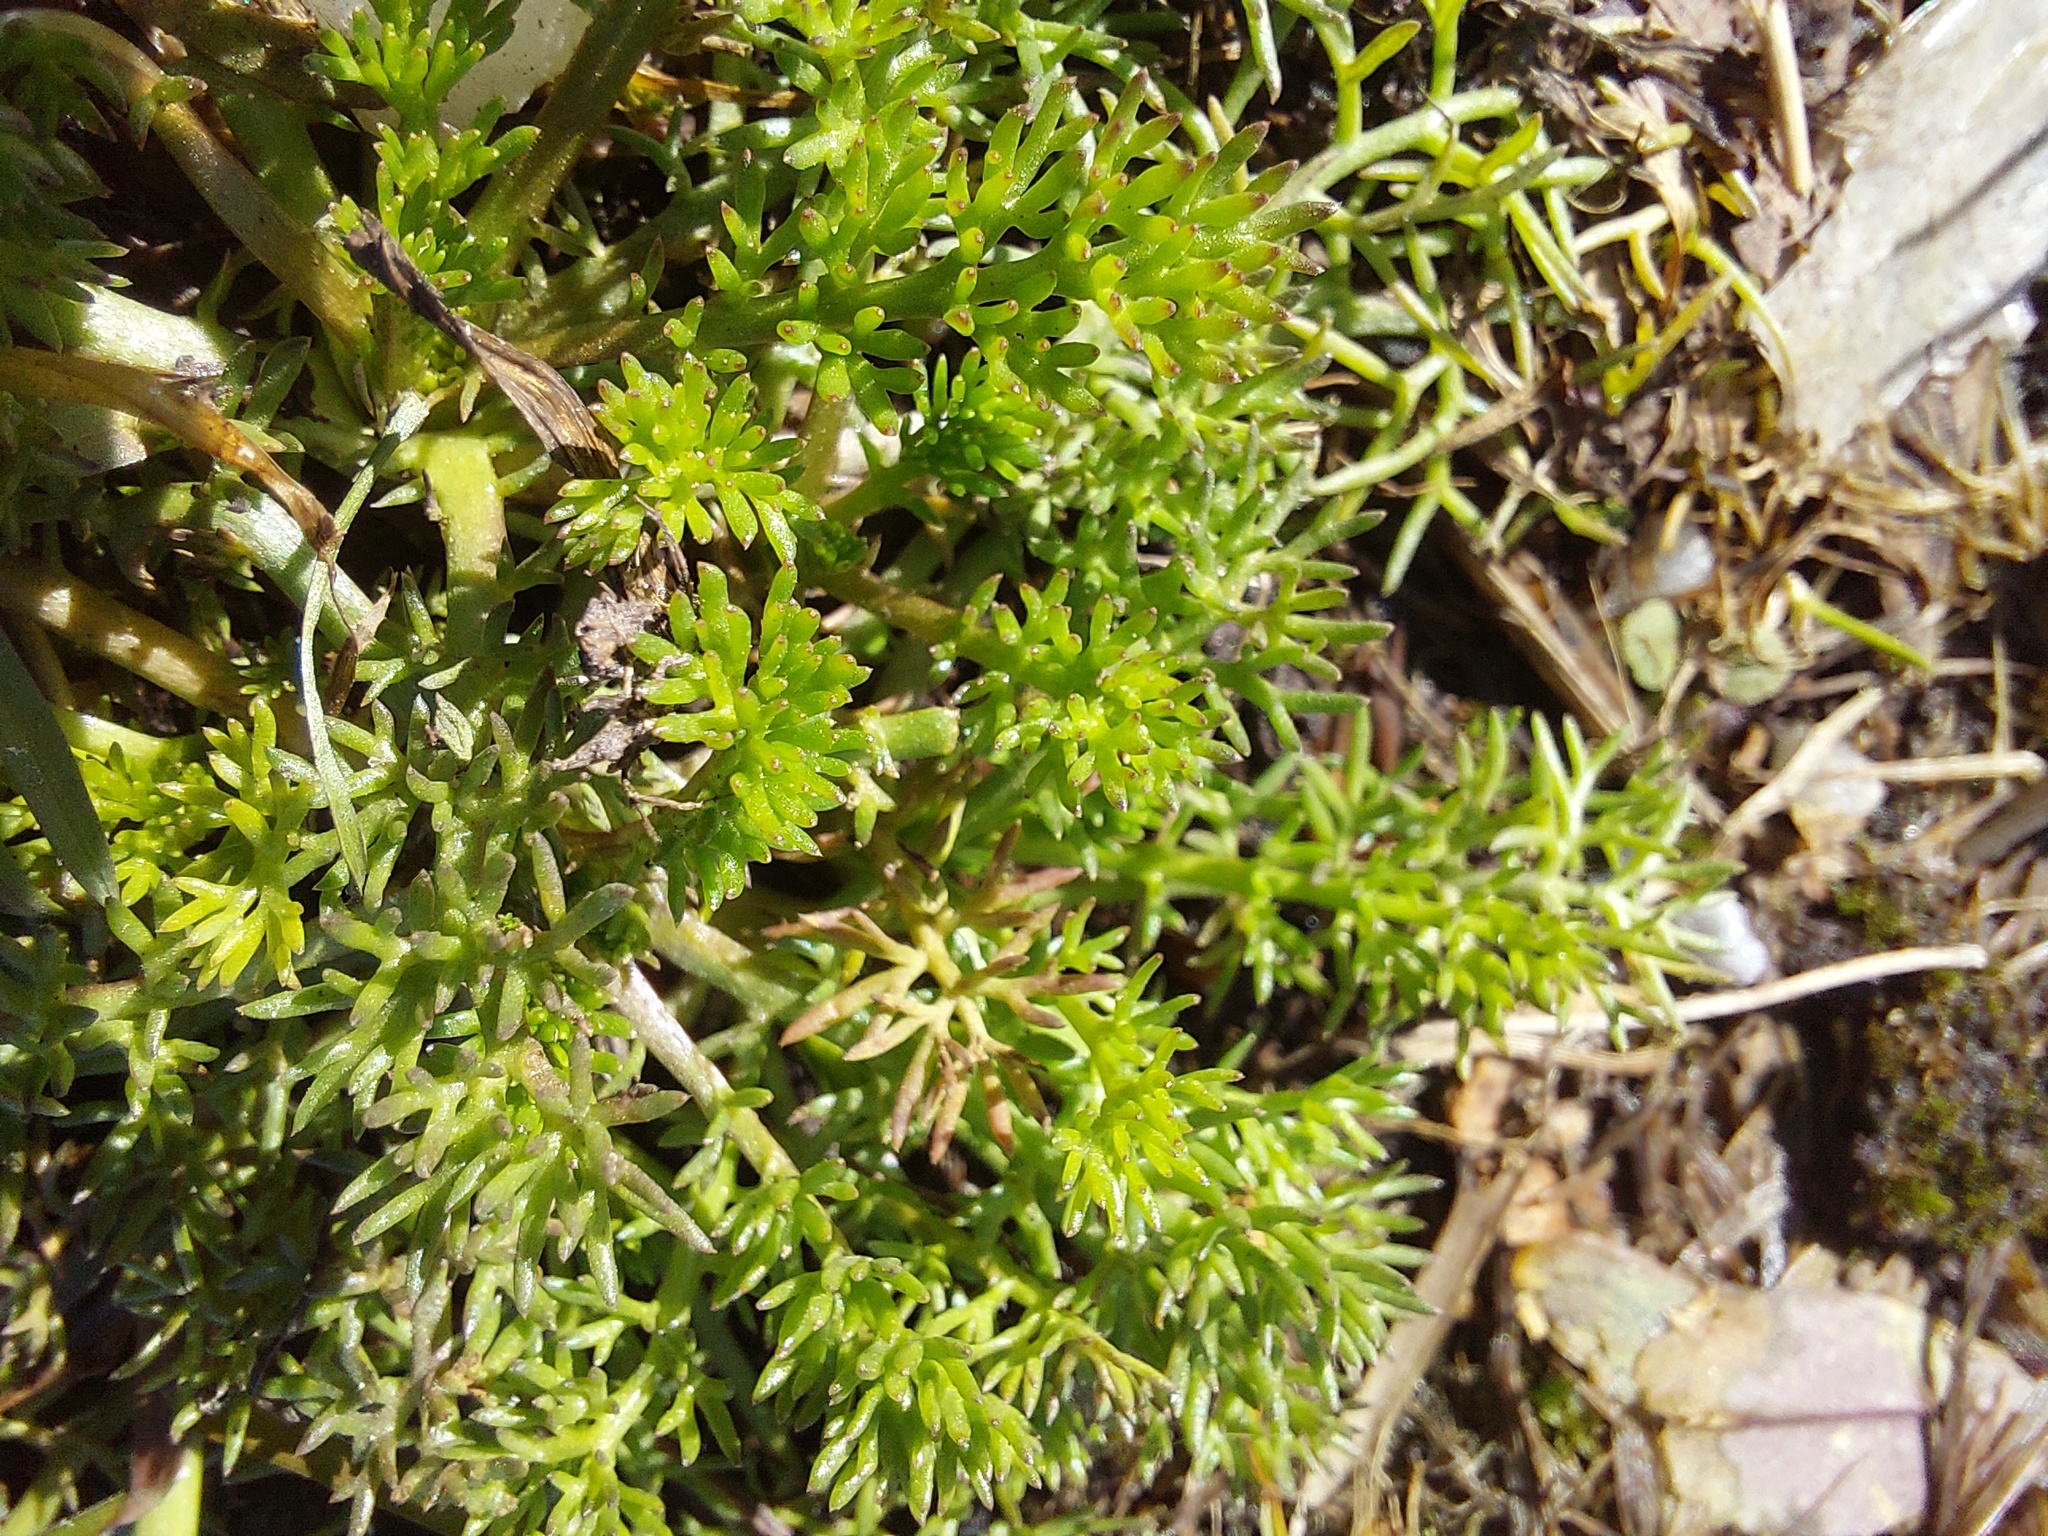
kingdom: Plantae
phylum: Tracheophyta
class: Magnoliopsida
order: Asterales
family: Asteraceae
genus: Tripleurospermum
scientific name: Tripleurospermum inodorum
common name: Scentless mayweed
